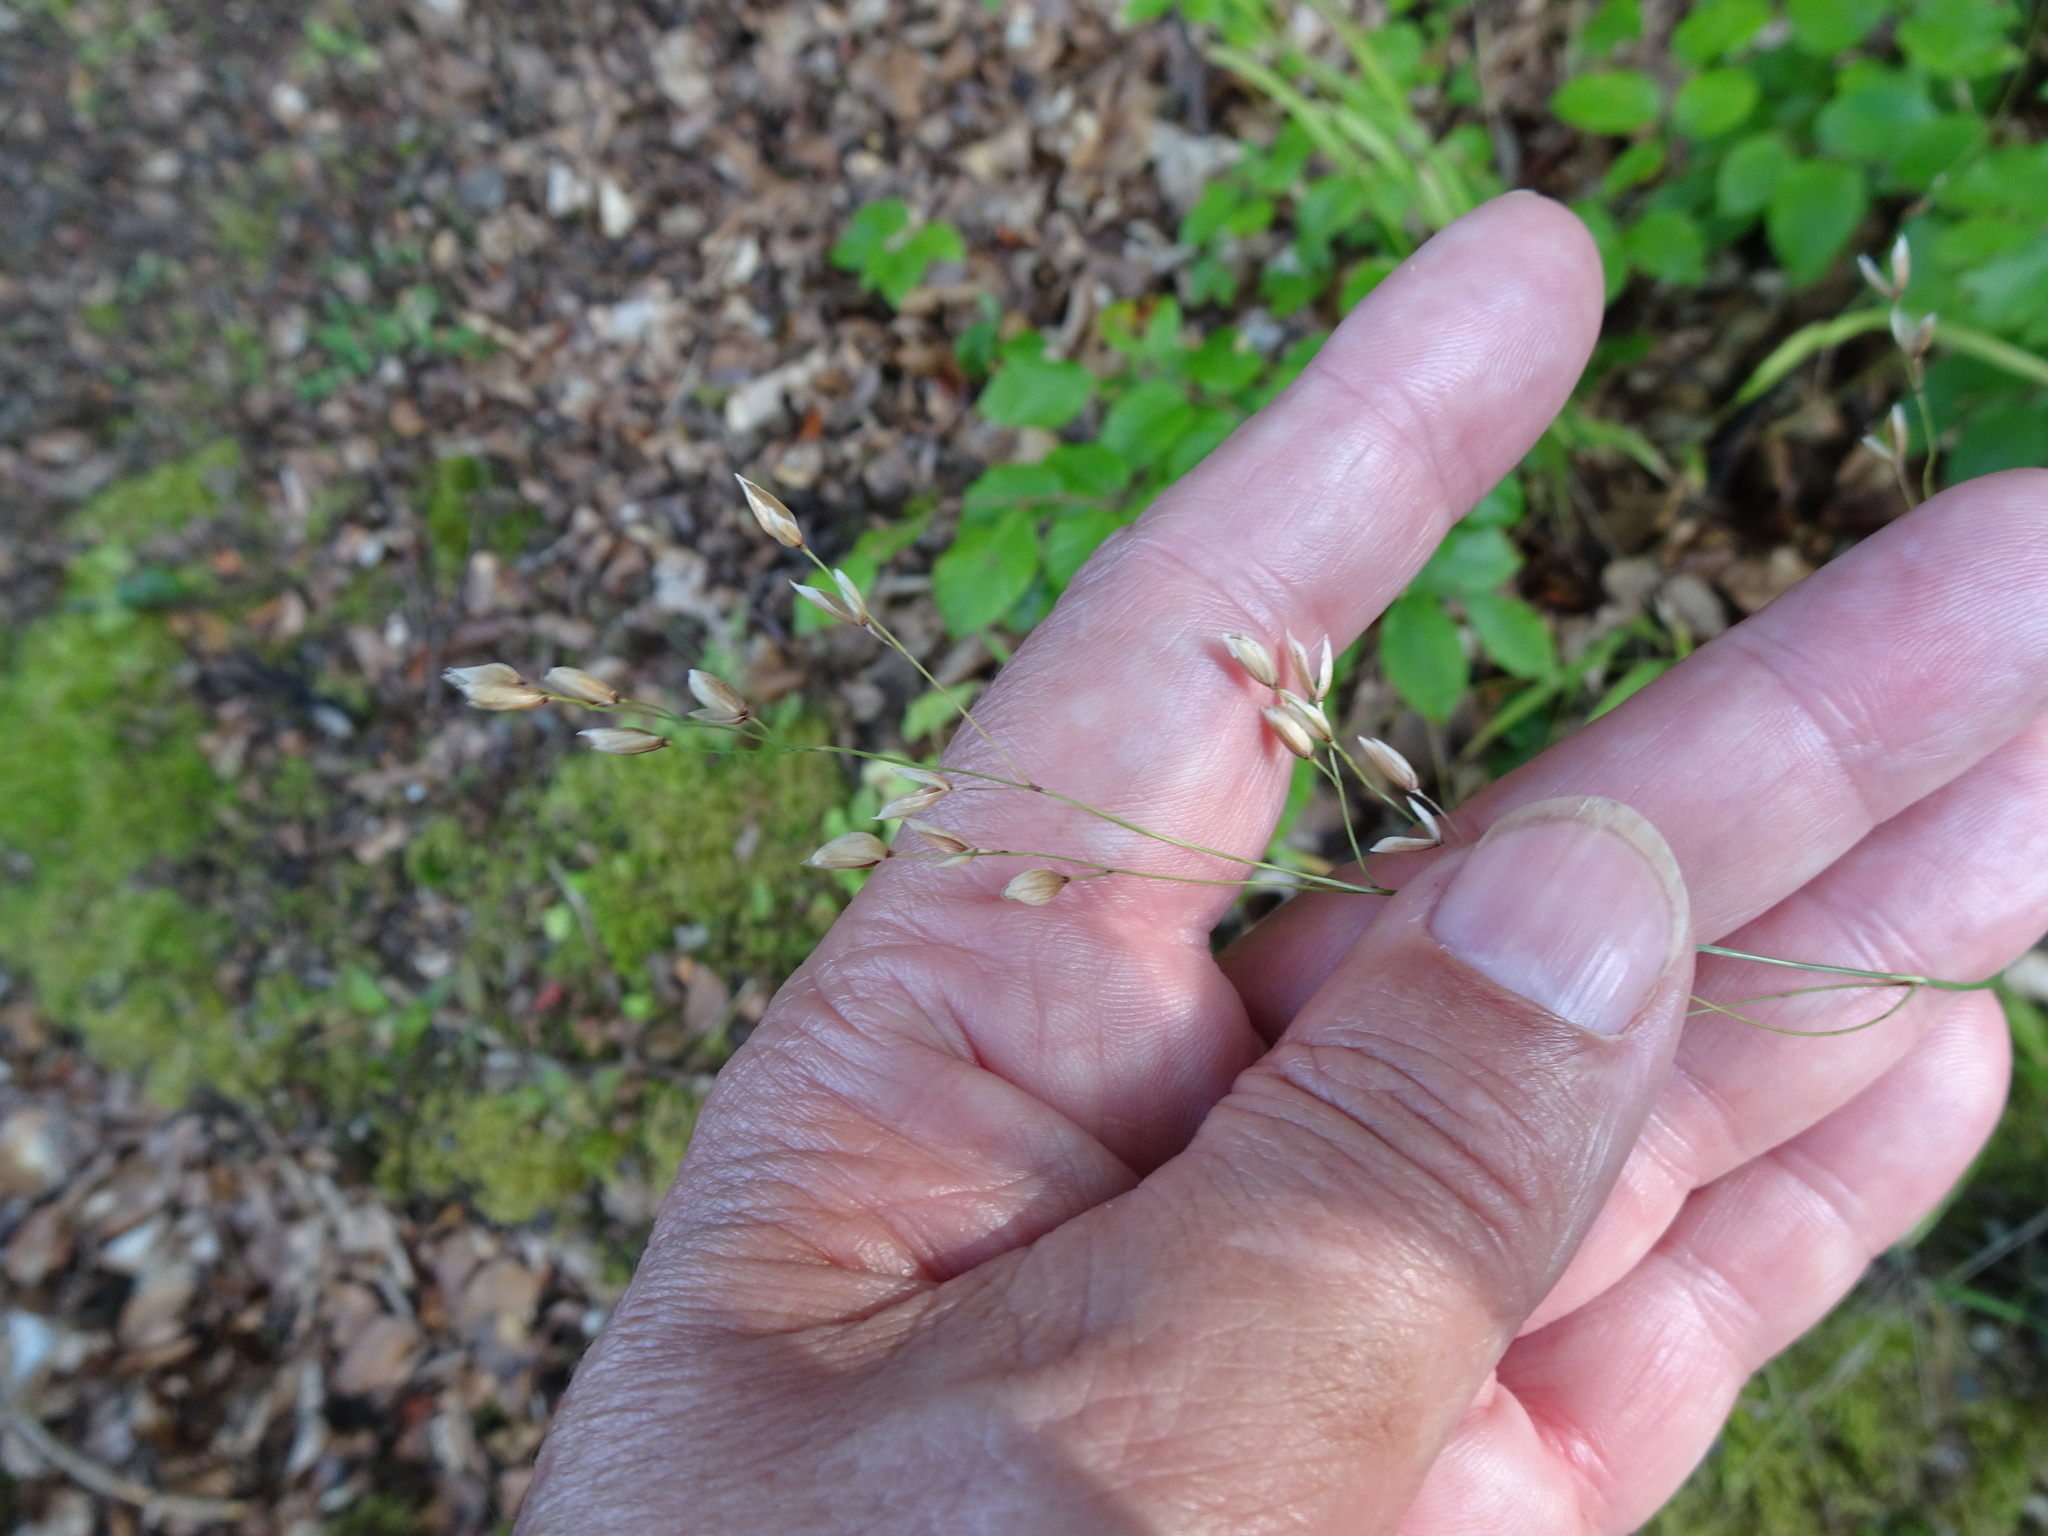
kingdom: Plantae
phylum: Tracheophyta
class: Liliopsida
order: Poales
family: Poaceae
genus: Melica
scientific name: Melica uniflora
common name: Wood melick
